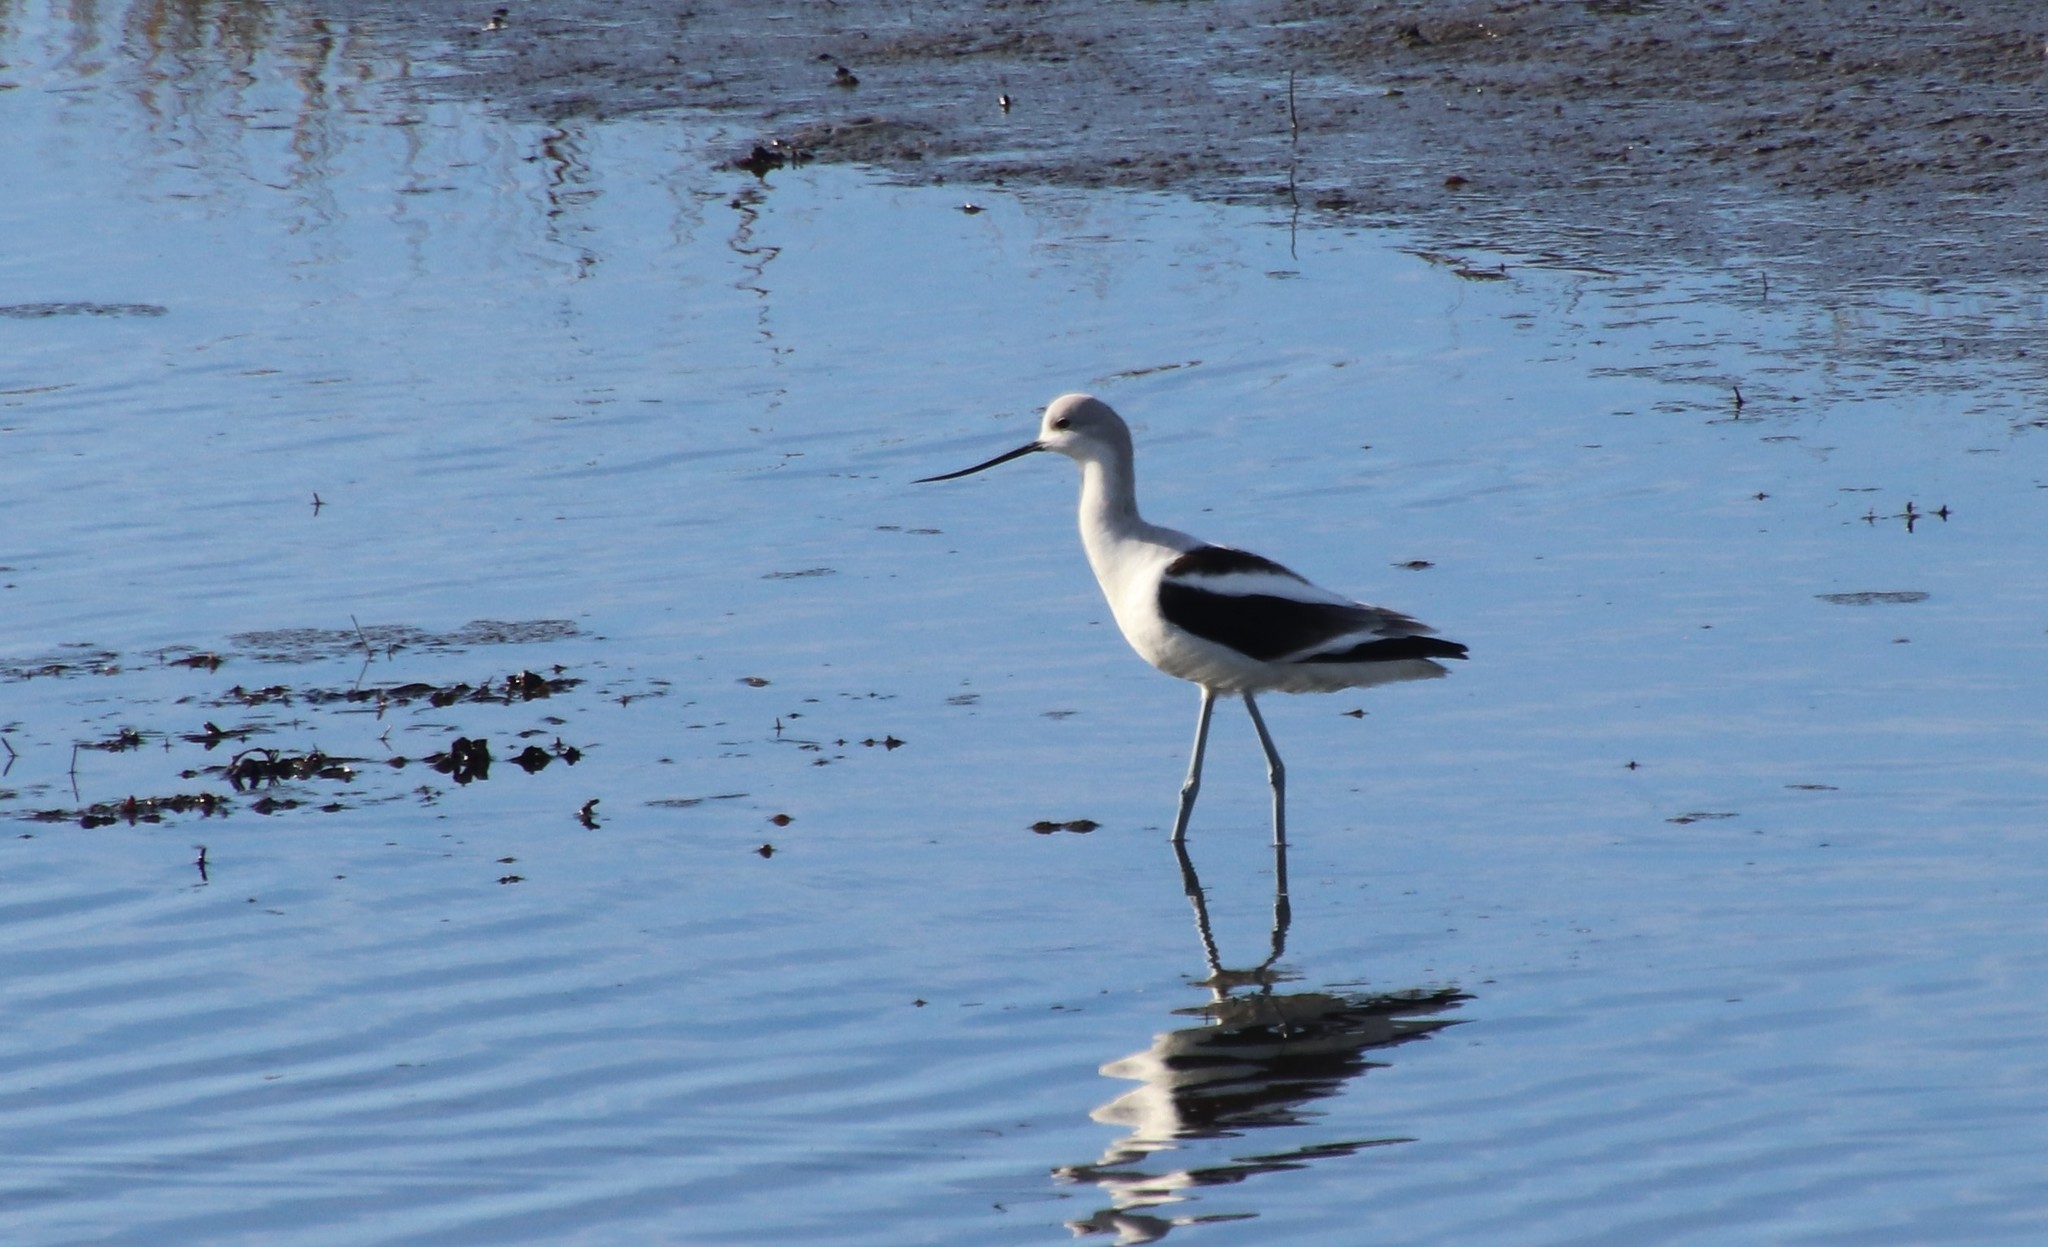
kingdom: Animalia
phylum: Chordata
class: Aves
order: Charadriiformes
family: Recurvirostridae
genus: Recurvirostra
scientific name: Recurvirostra americana
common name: American avocet
